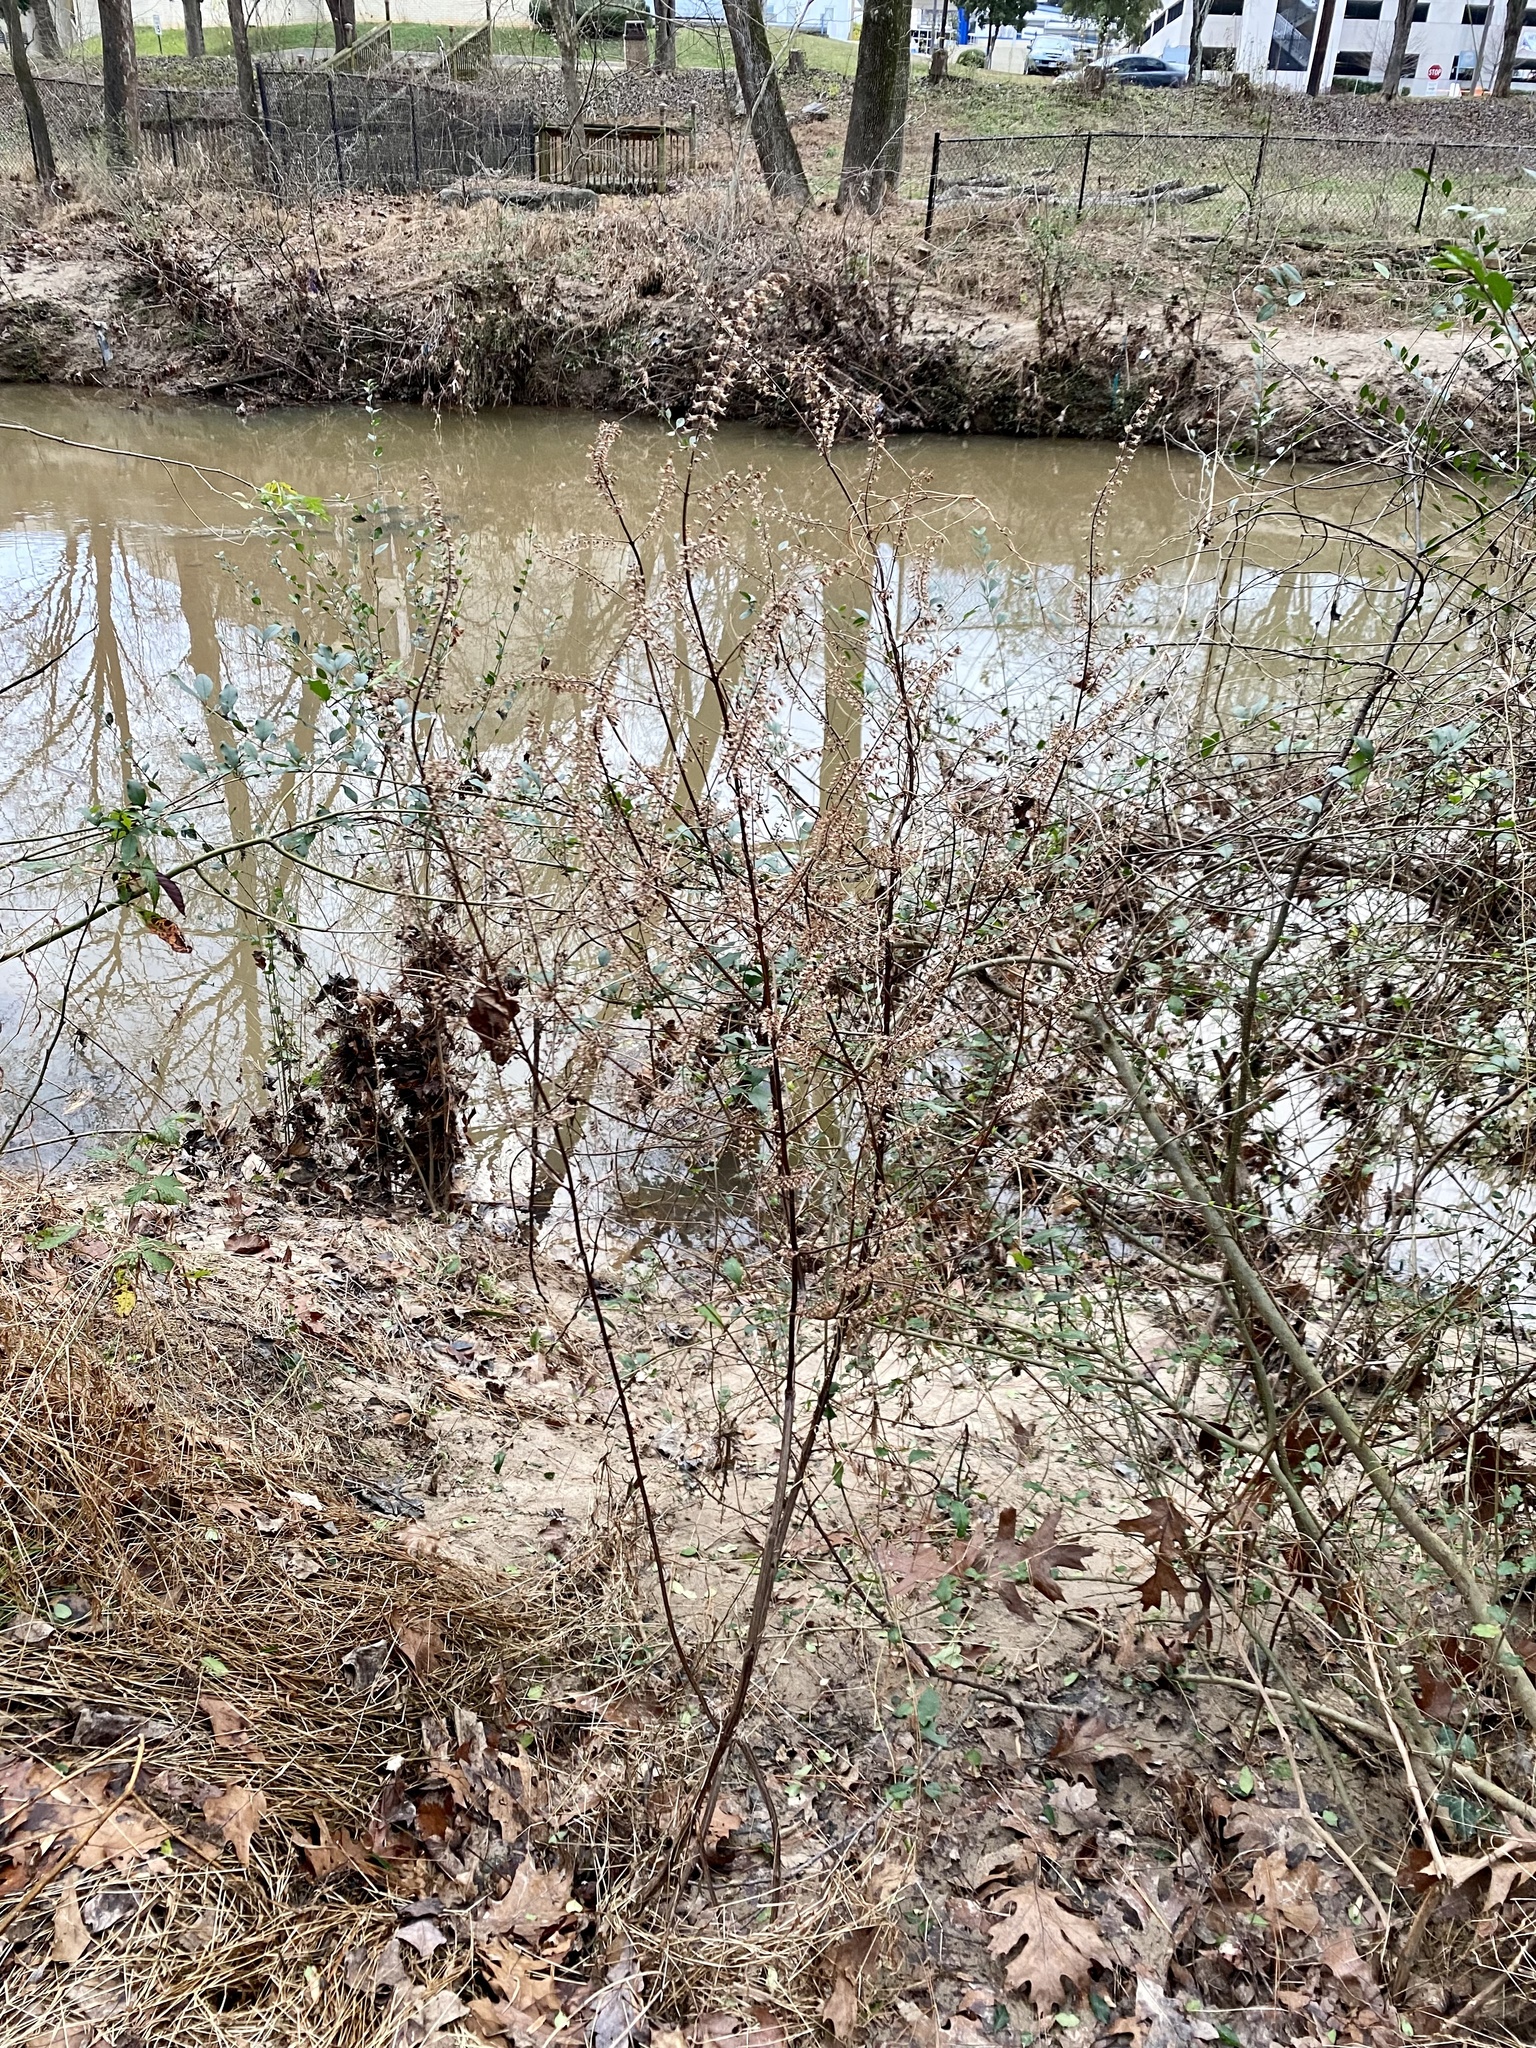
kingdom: Plantae
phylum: Tracheophyta
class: Magnoliopsida
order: Lamiales
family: Lamiaceae
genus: Perilla
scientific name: Perilla frutescens
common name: Perilla
